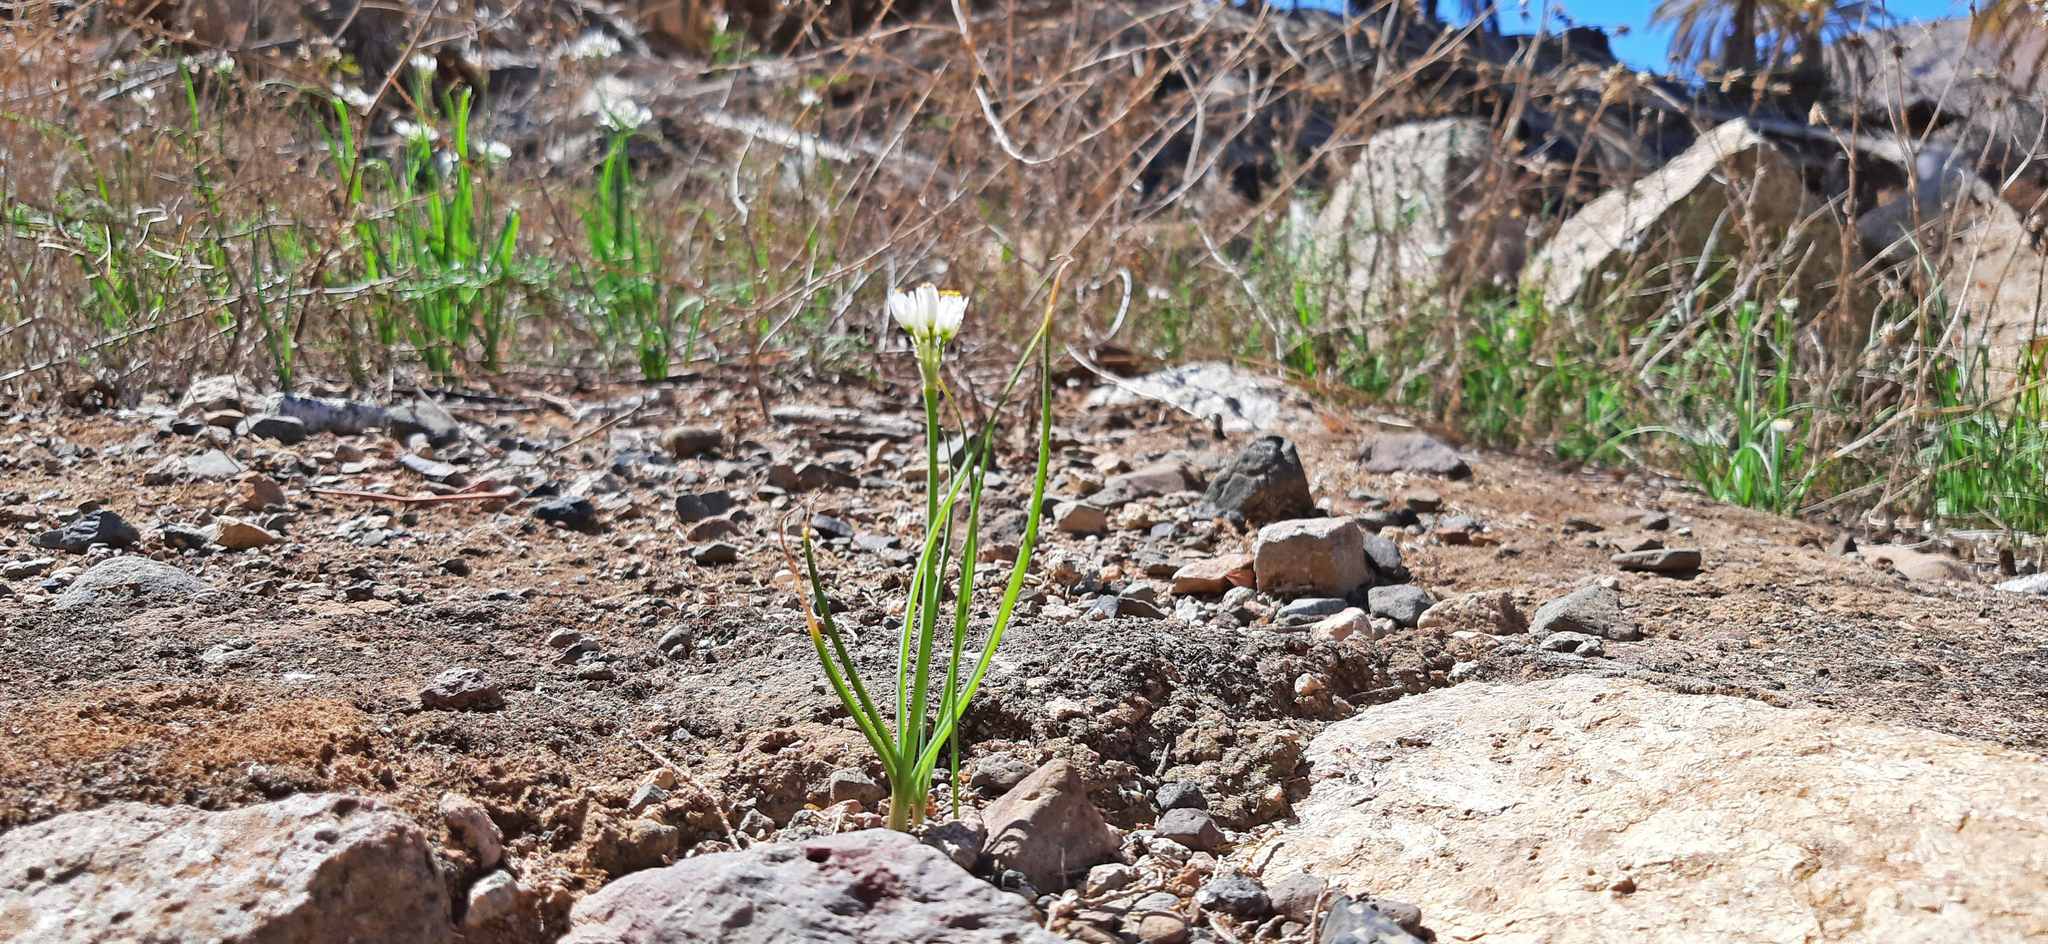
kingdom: Plantae
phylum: Tracheophyta
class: Liliopsida
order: Asparagales
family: Amaryllidaceae
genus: Allium
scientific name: Allium canariense
